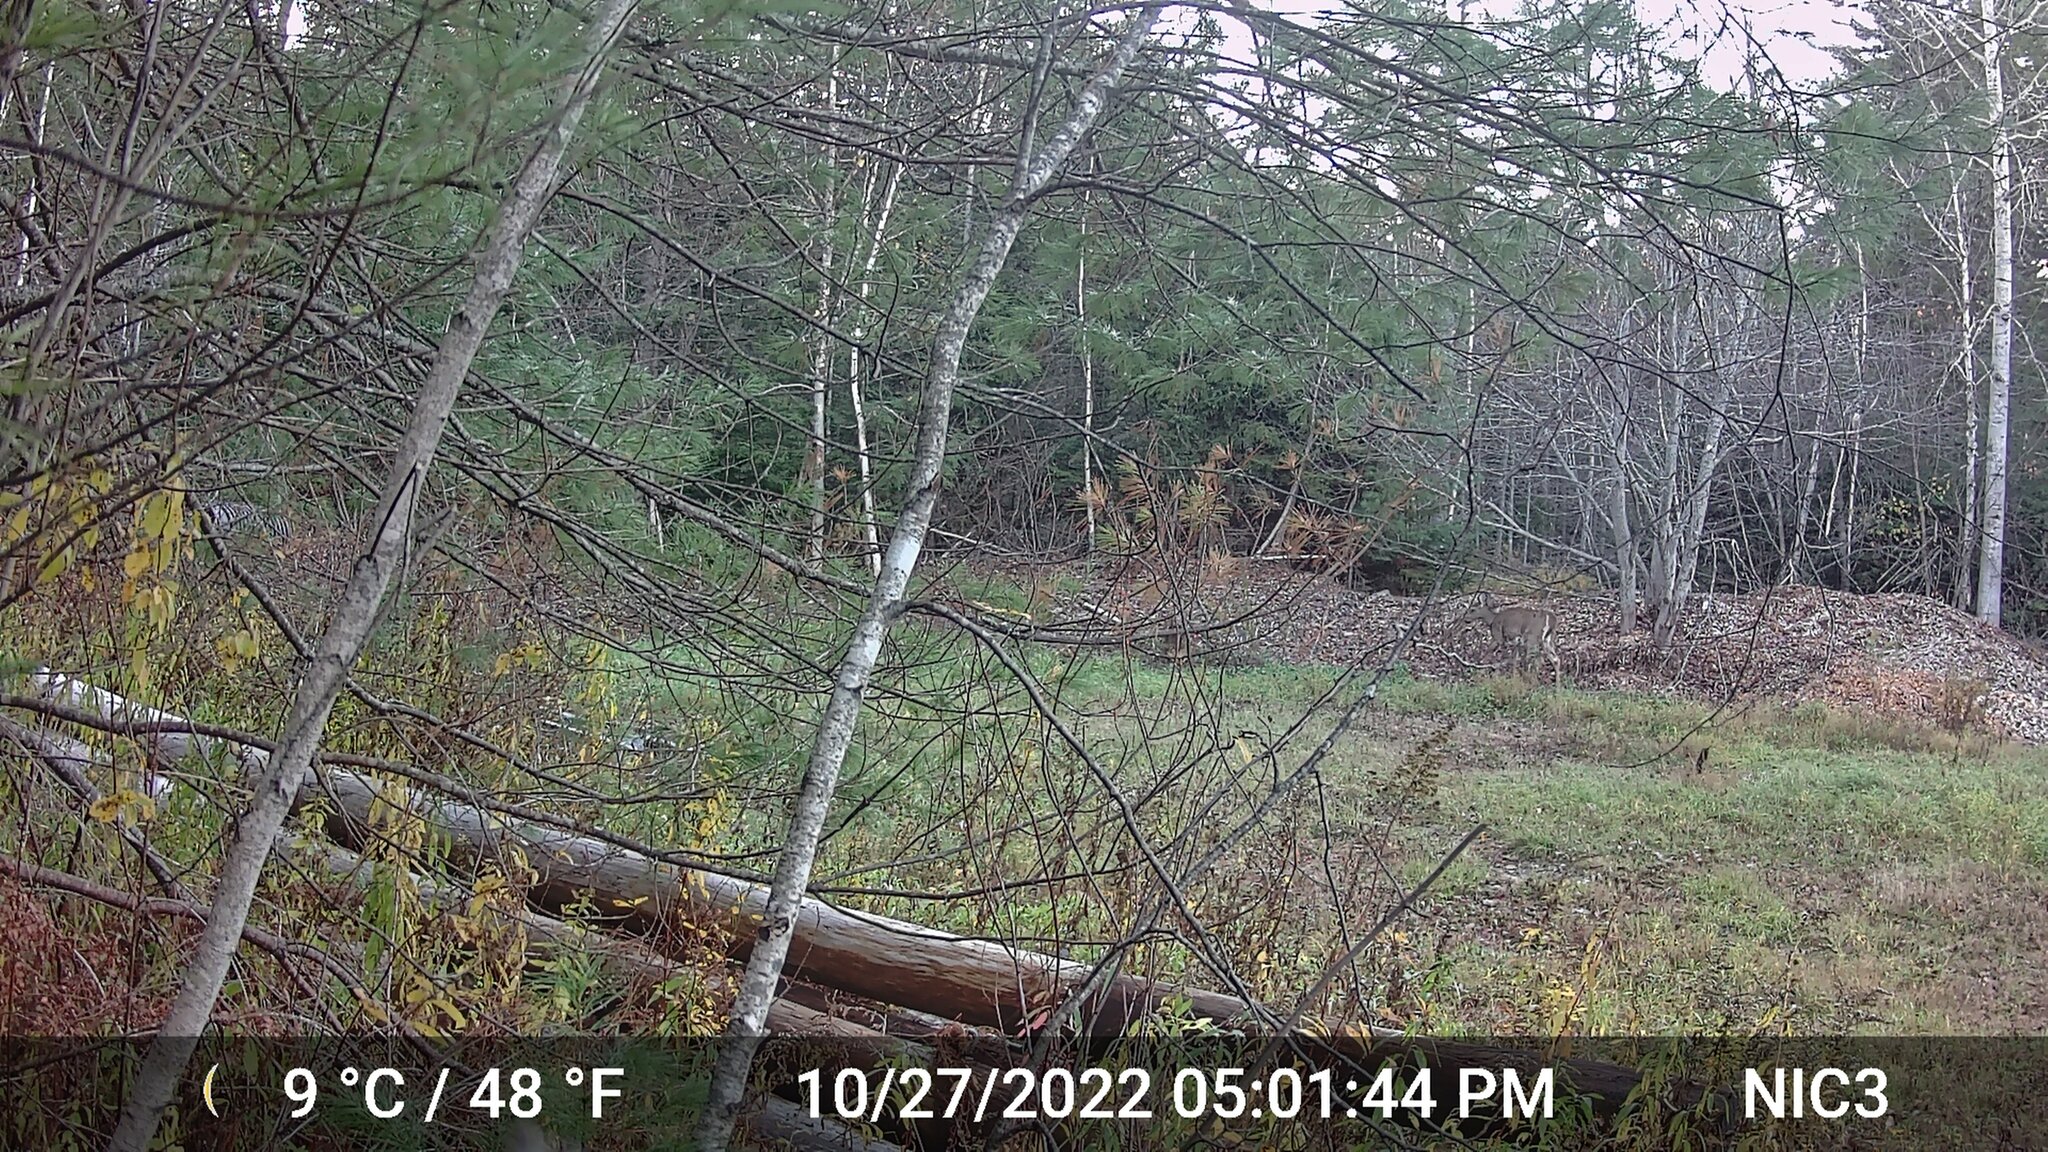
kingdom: Animalia
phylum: Chordata
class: Mammalia
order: Artiodactyla
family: Cervidae
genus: Odocoileus
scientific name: Odocoileus virginianus
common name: White-tailed deer
